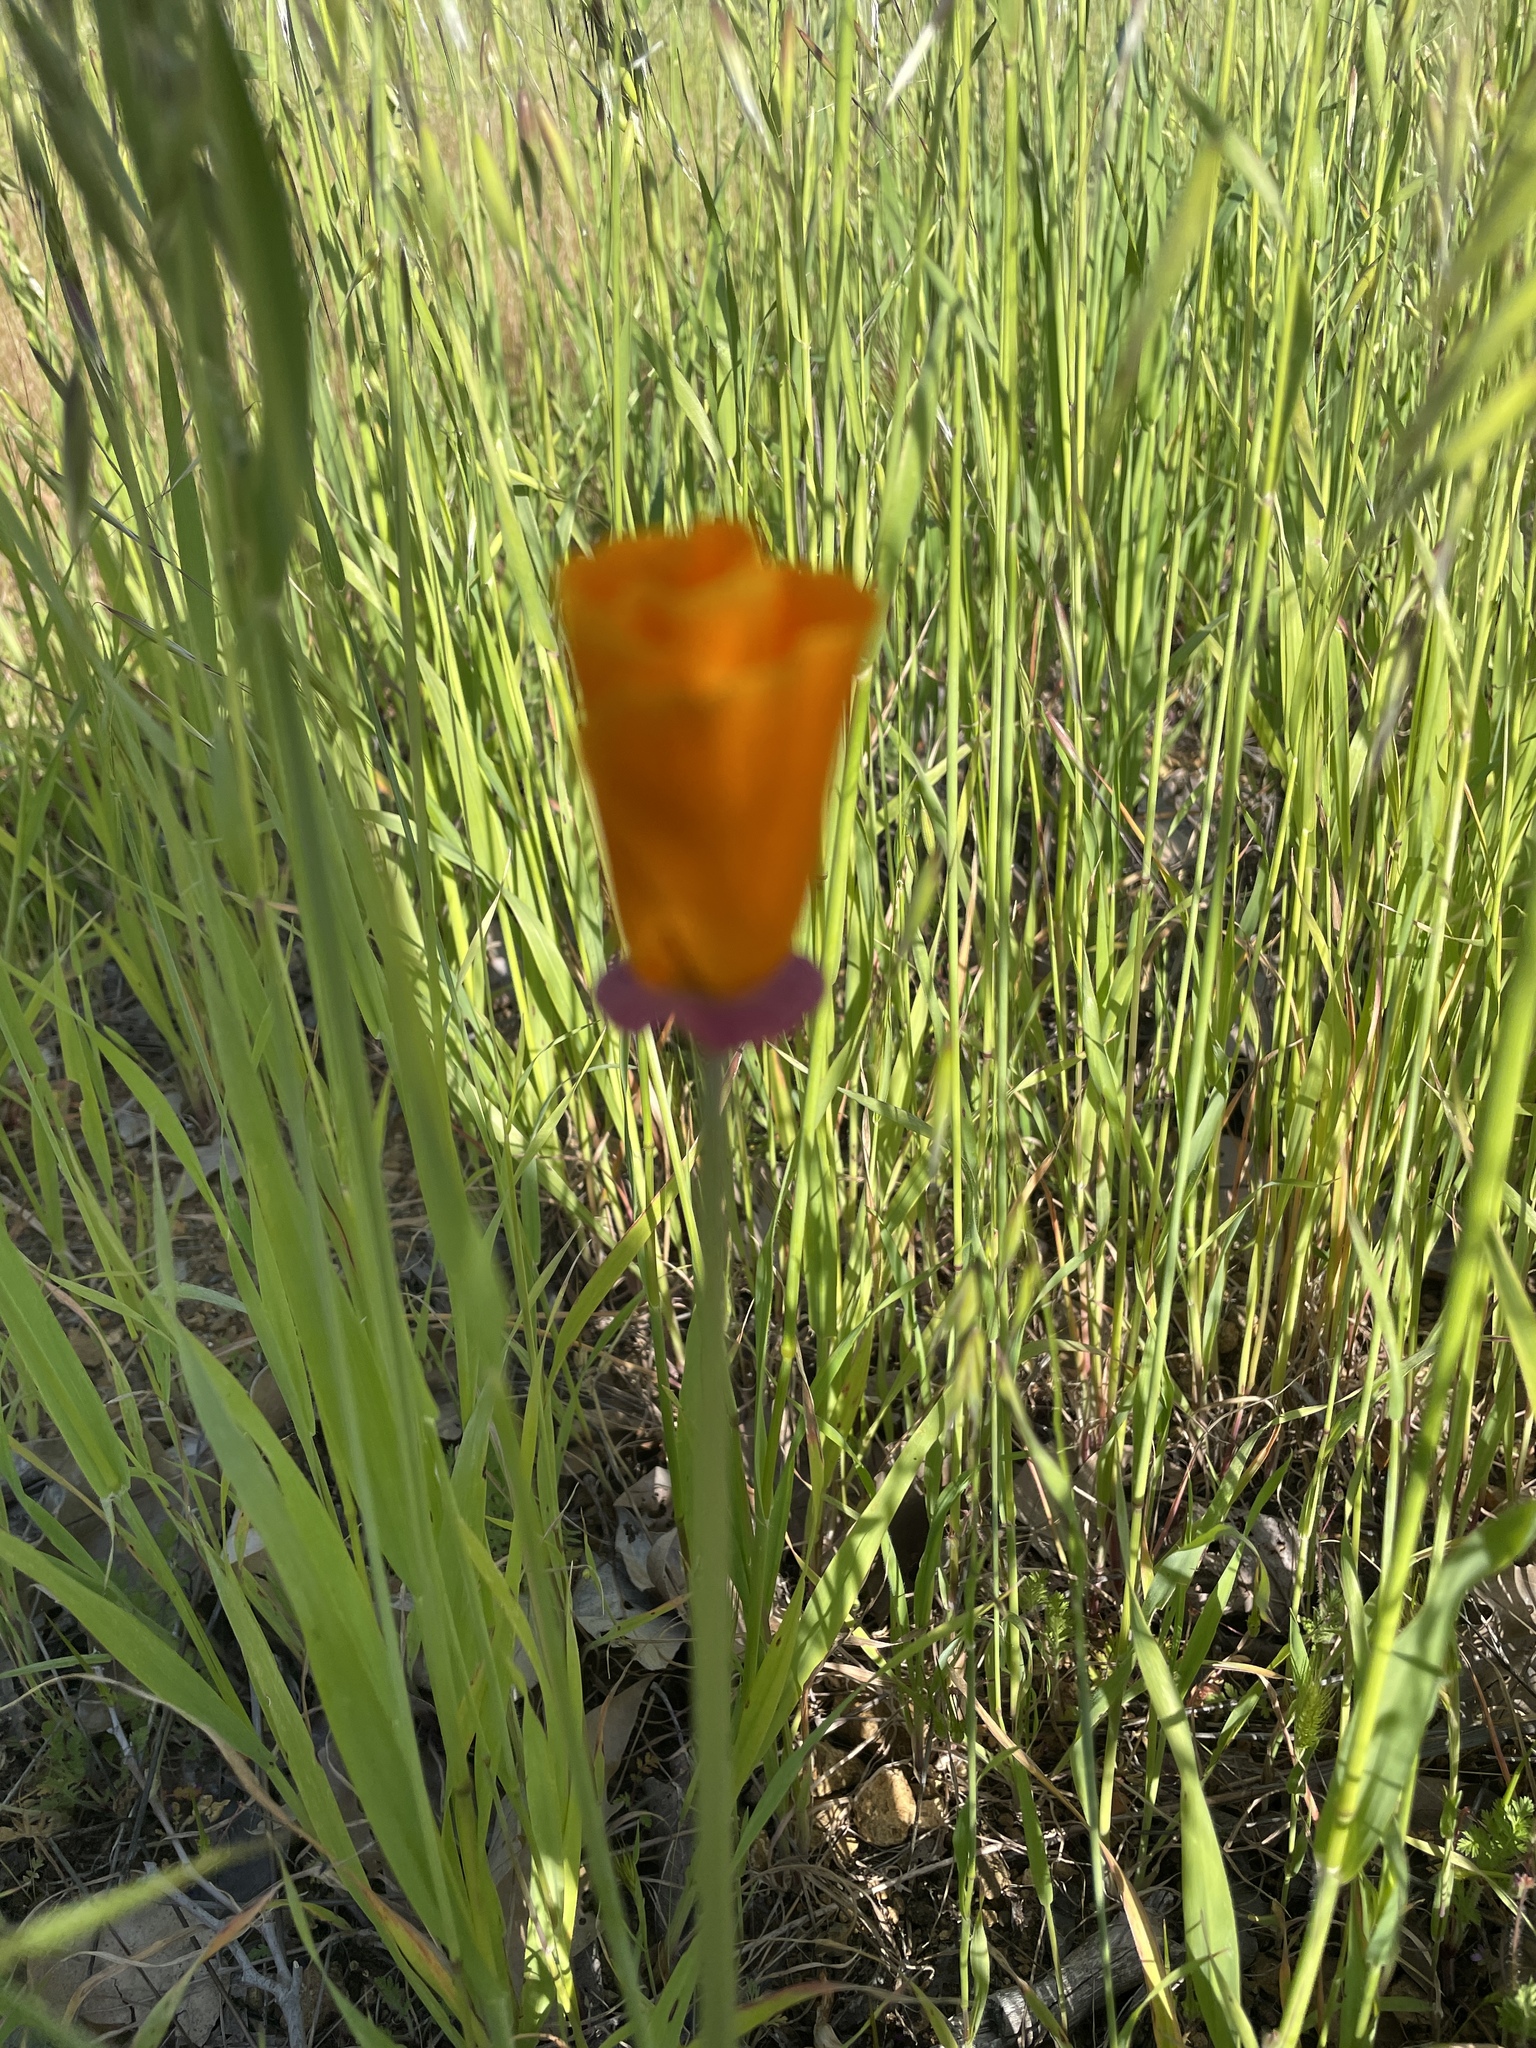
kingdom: Plantae
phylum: Tracheophyta
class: Magnoliopsida
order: Ranunculales
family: Papaveraceae
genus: Eschscholzia
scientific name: Eschscholzia californica
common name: California poppy
